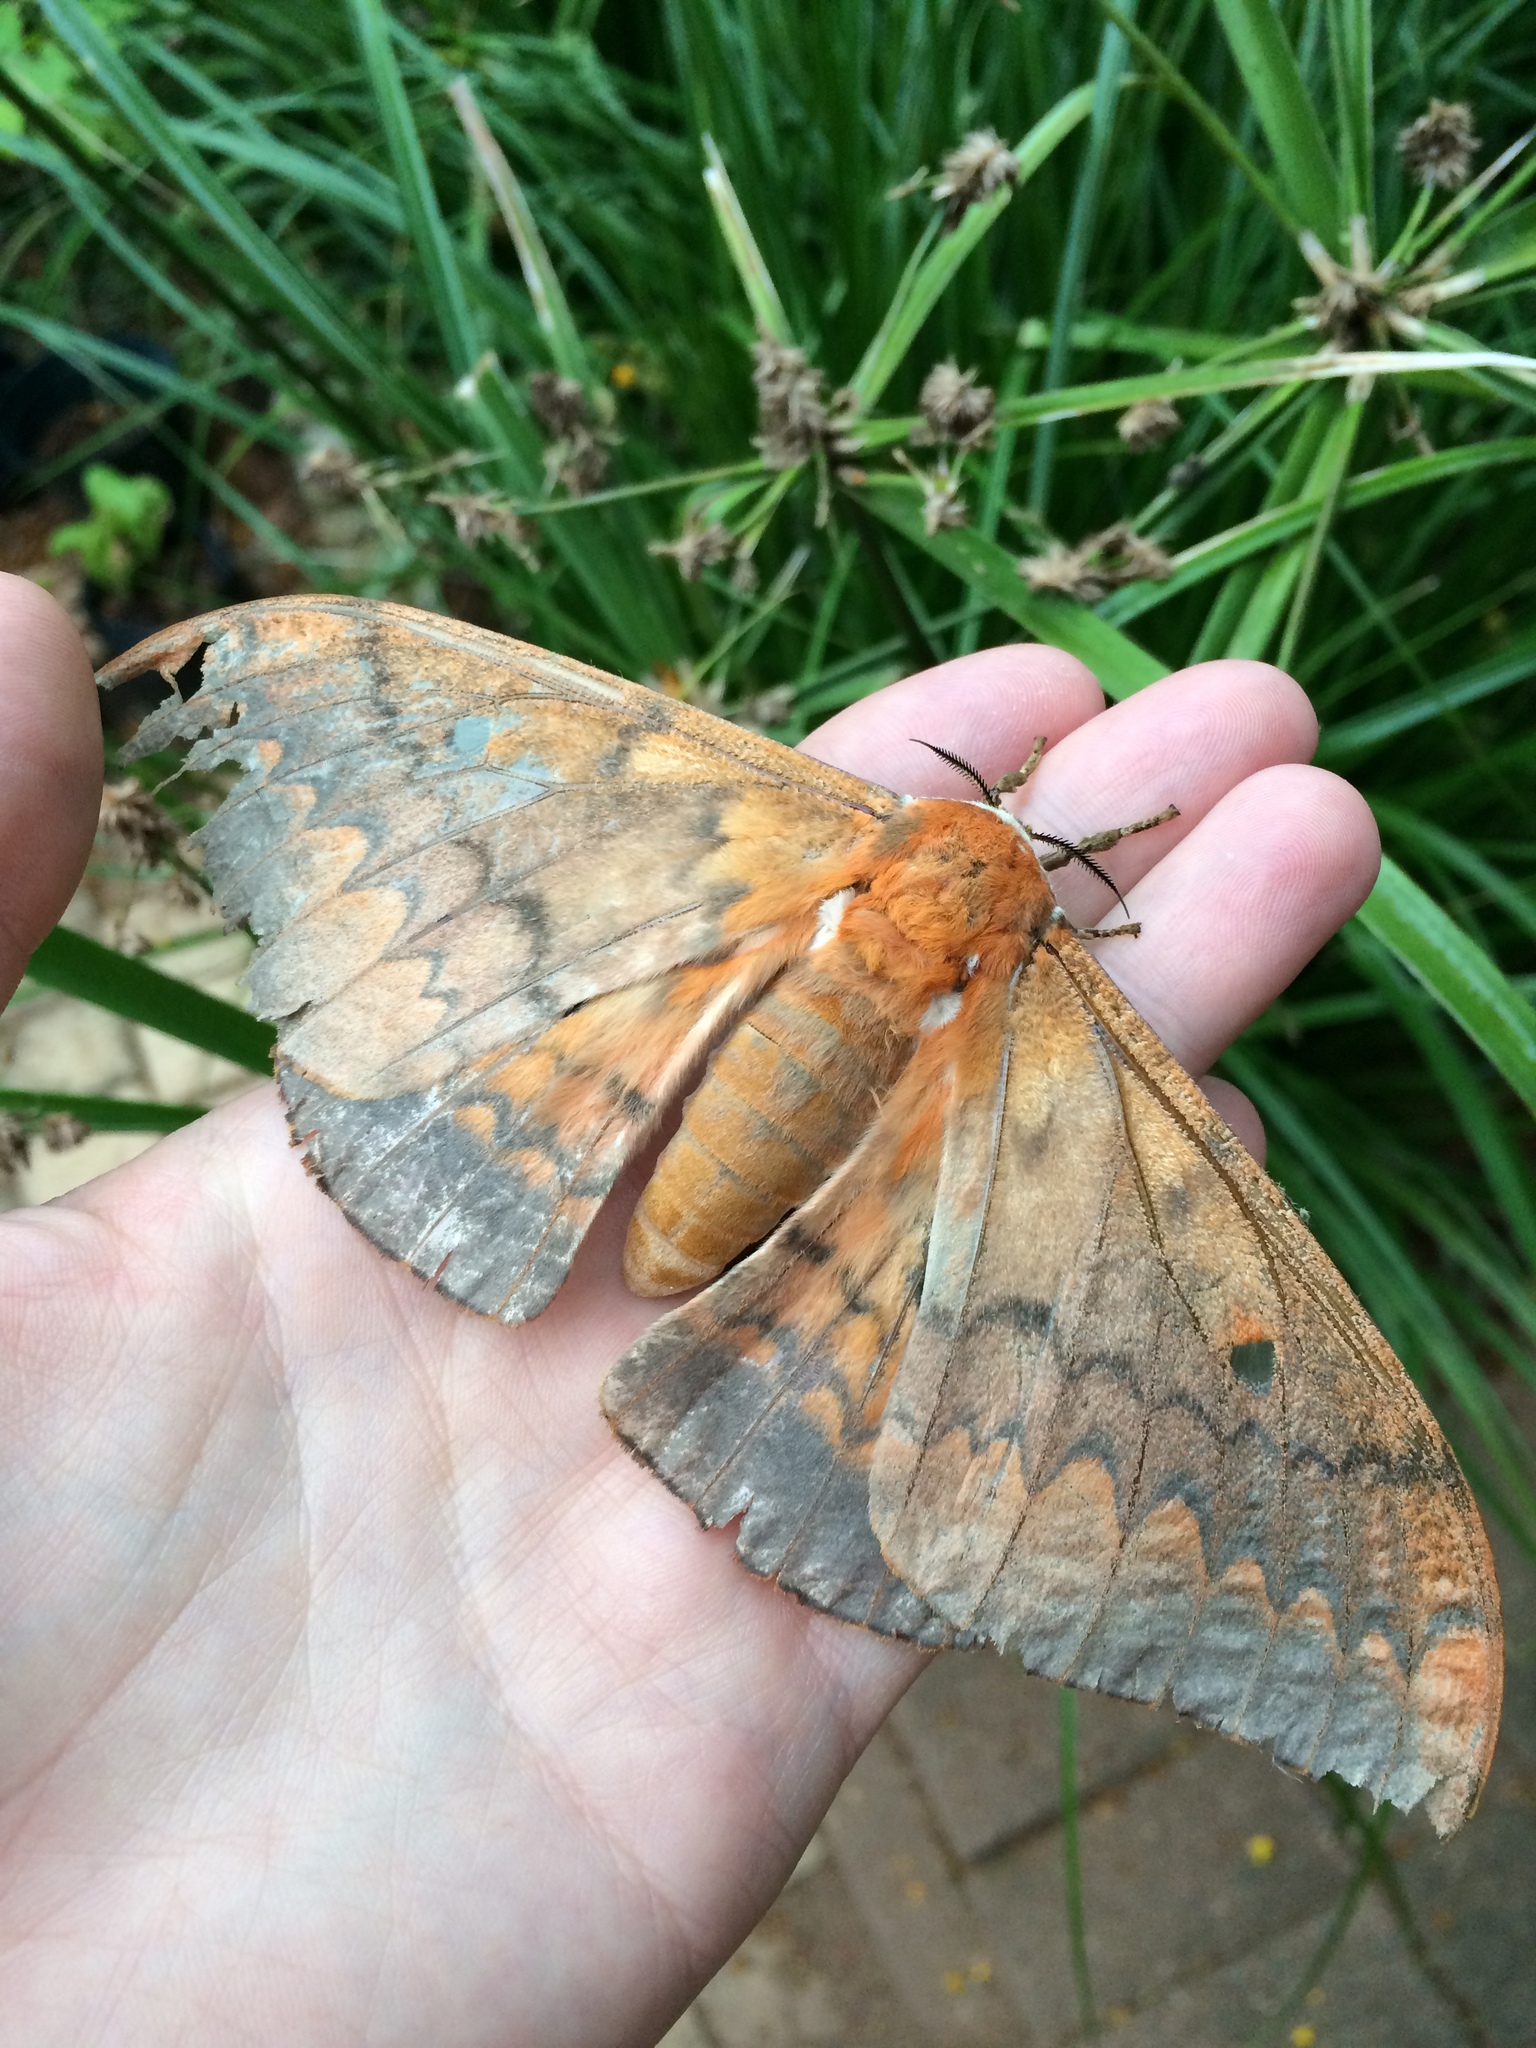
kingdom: Animalia
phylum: Arthropoda
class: Insecta
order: Lepidoptera
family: Saturniidae
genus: Pseudobunaea
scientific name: Pseudobunaea tyrrhena
